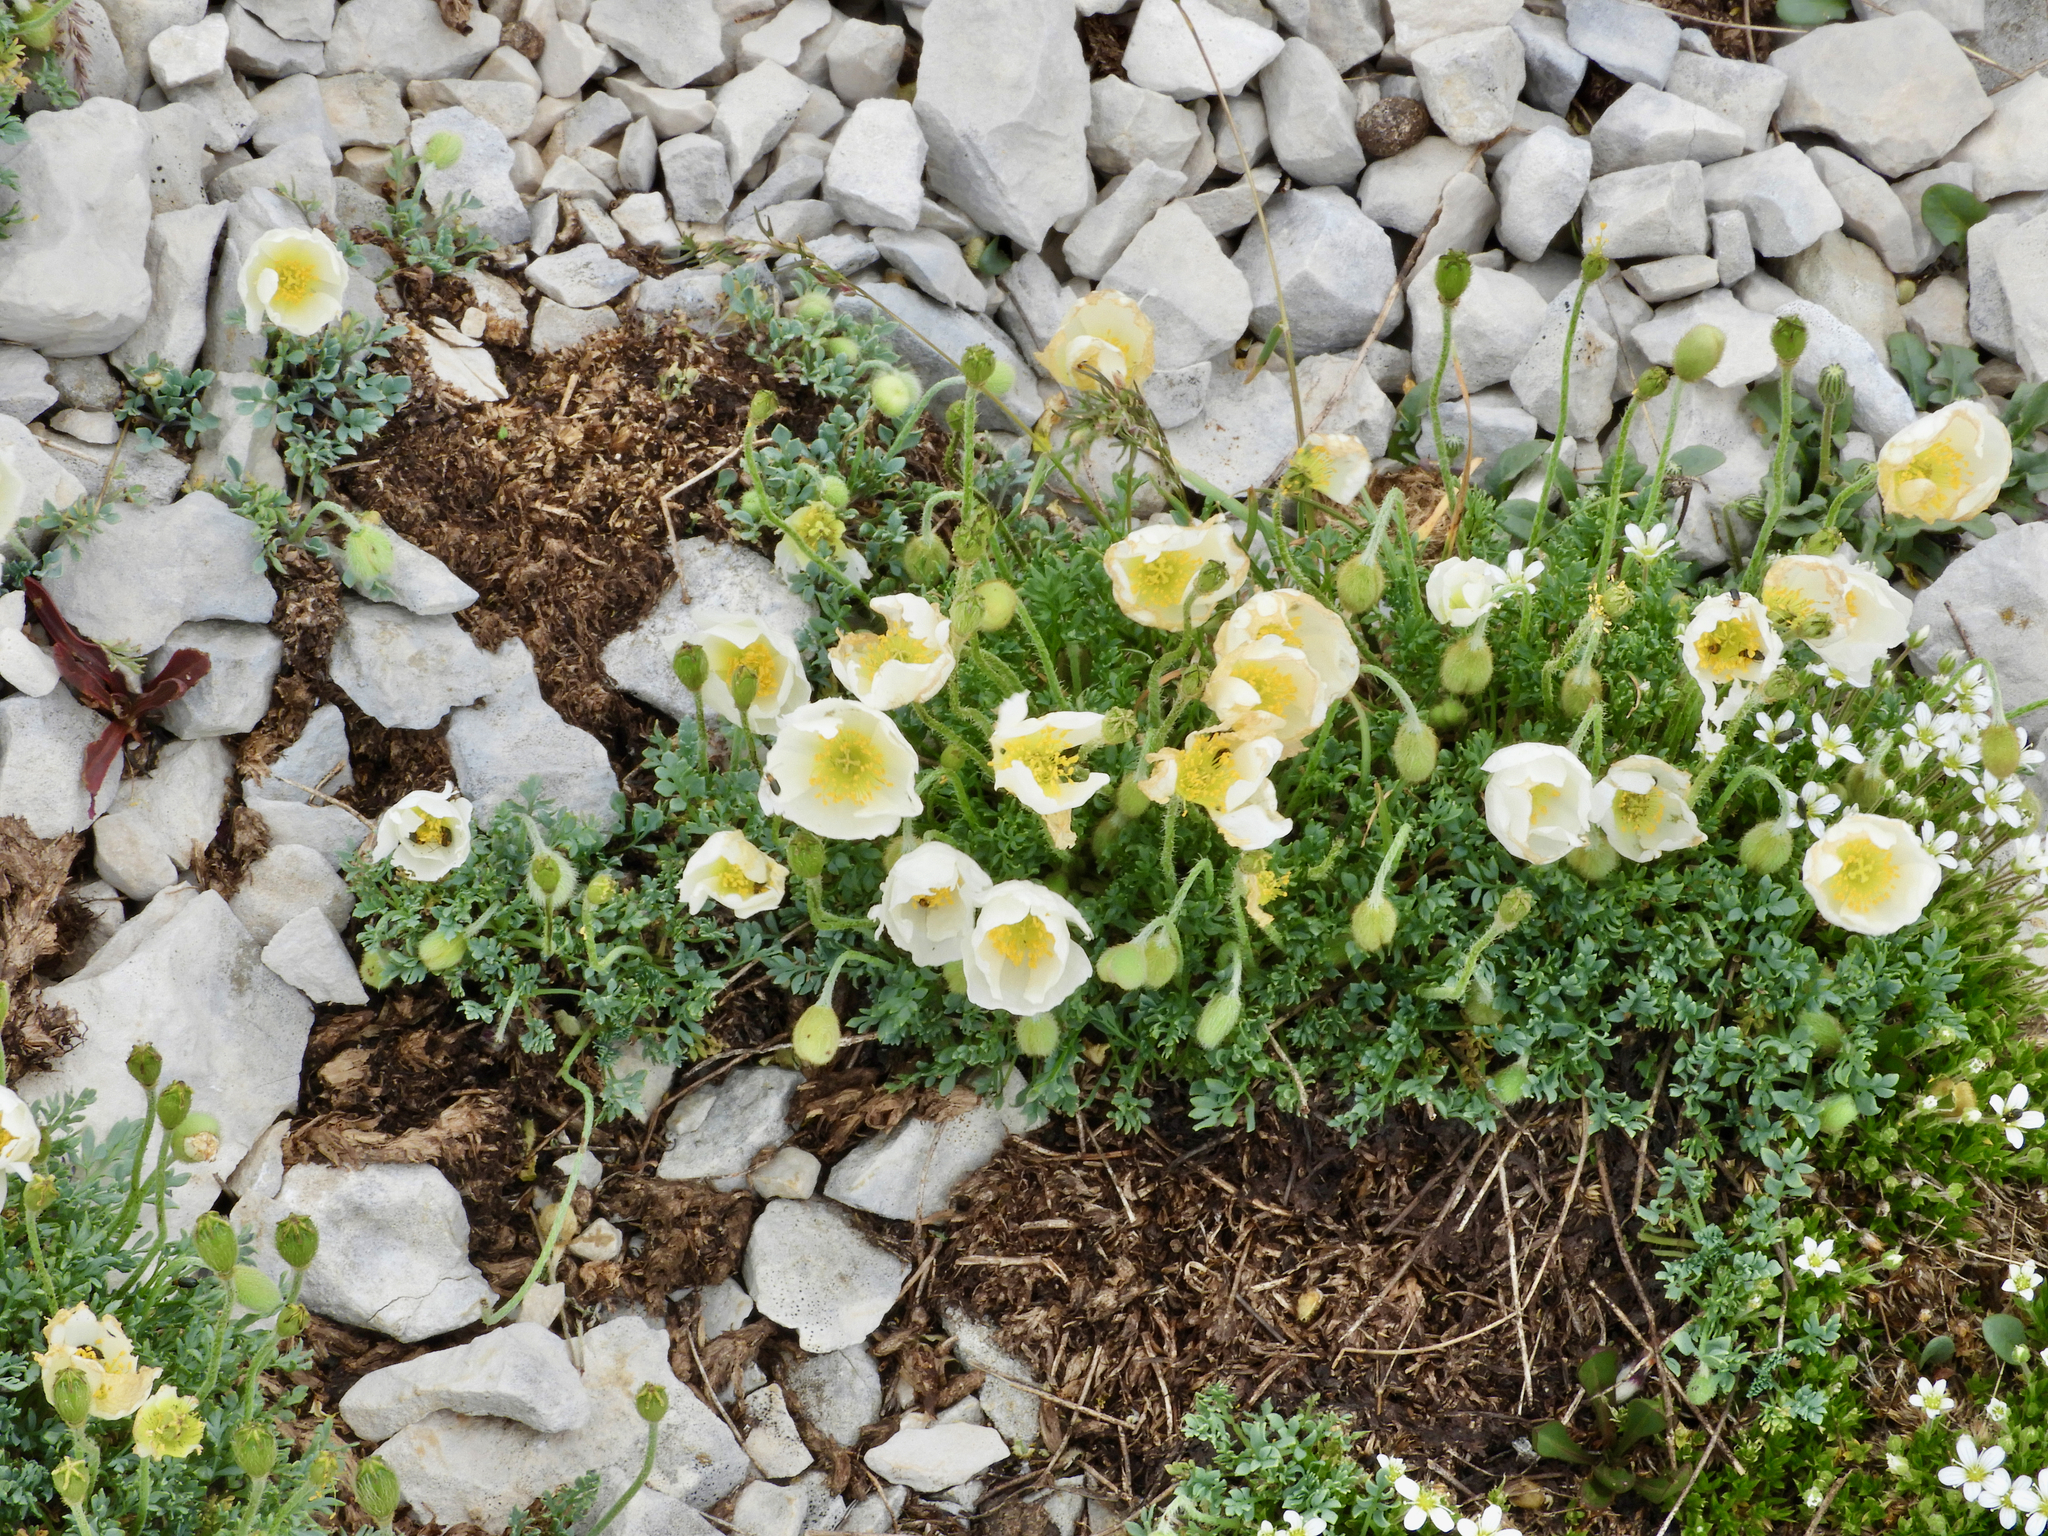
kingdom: Plantae
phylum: Tracheophyta
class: Magnoliopsida
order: Ranunculales
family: Papaveraceae
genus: Papaver
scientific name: Papaver alpinum
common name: Austrian poppy
